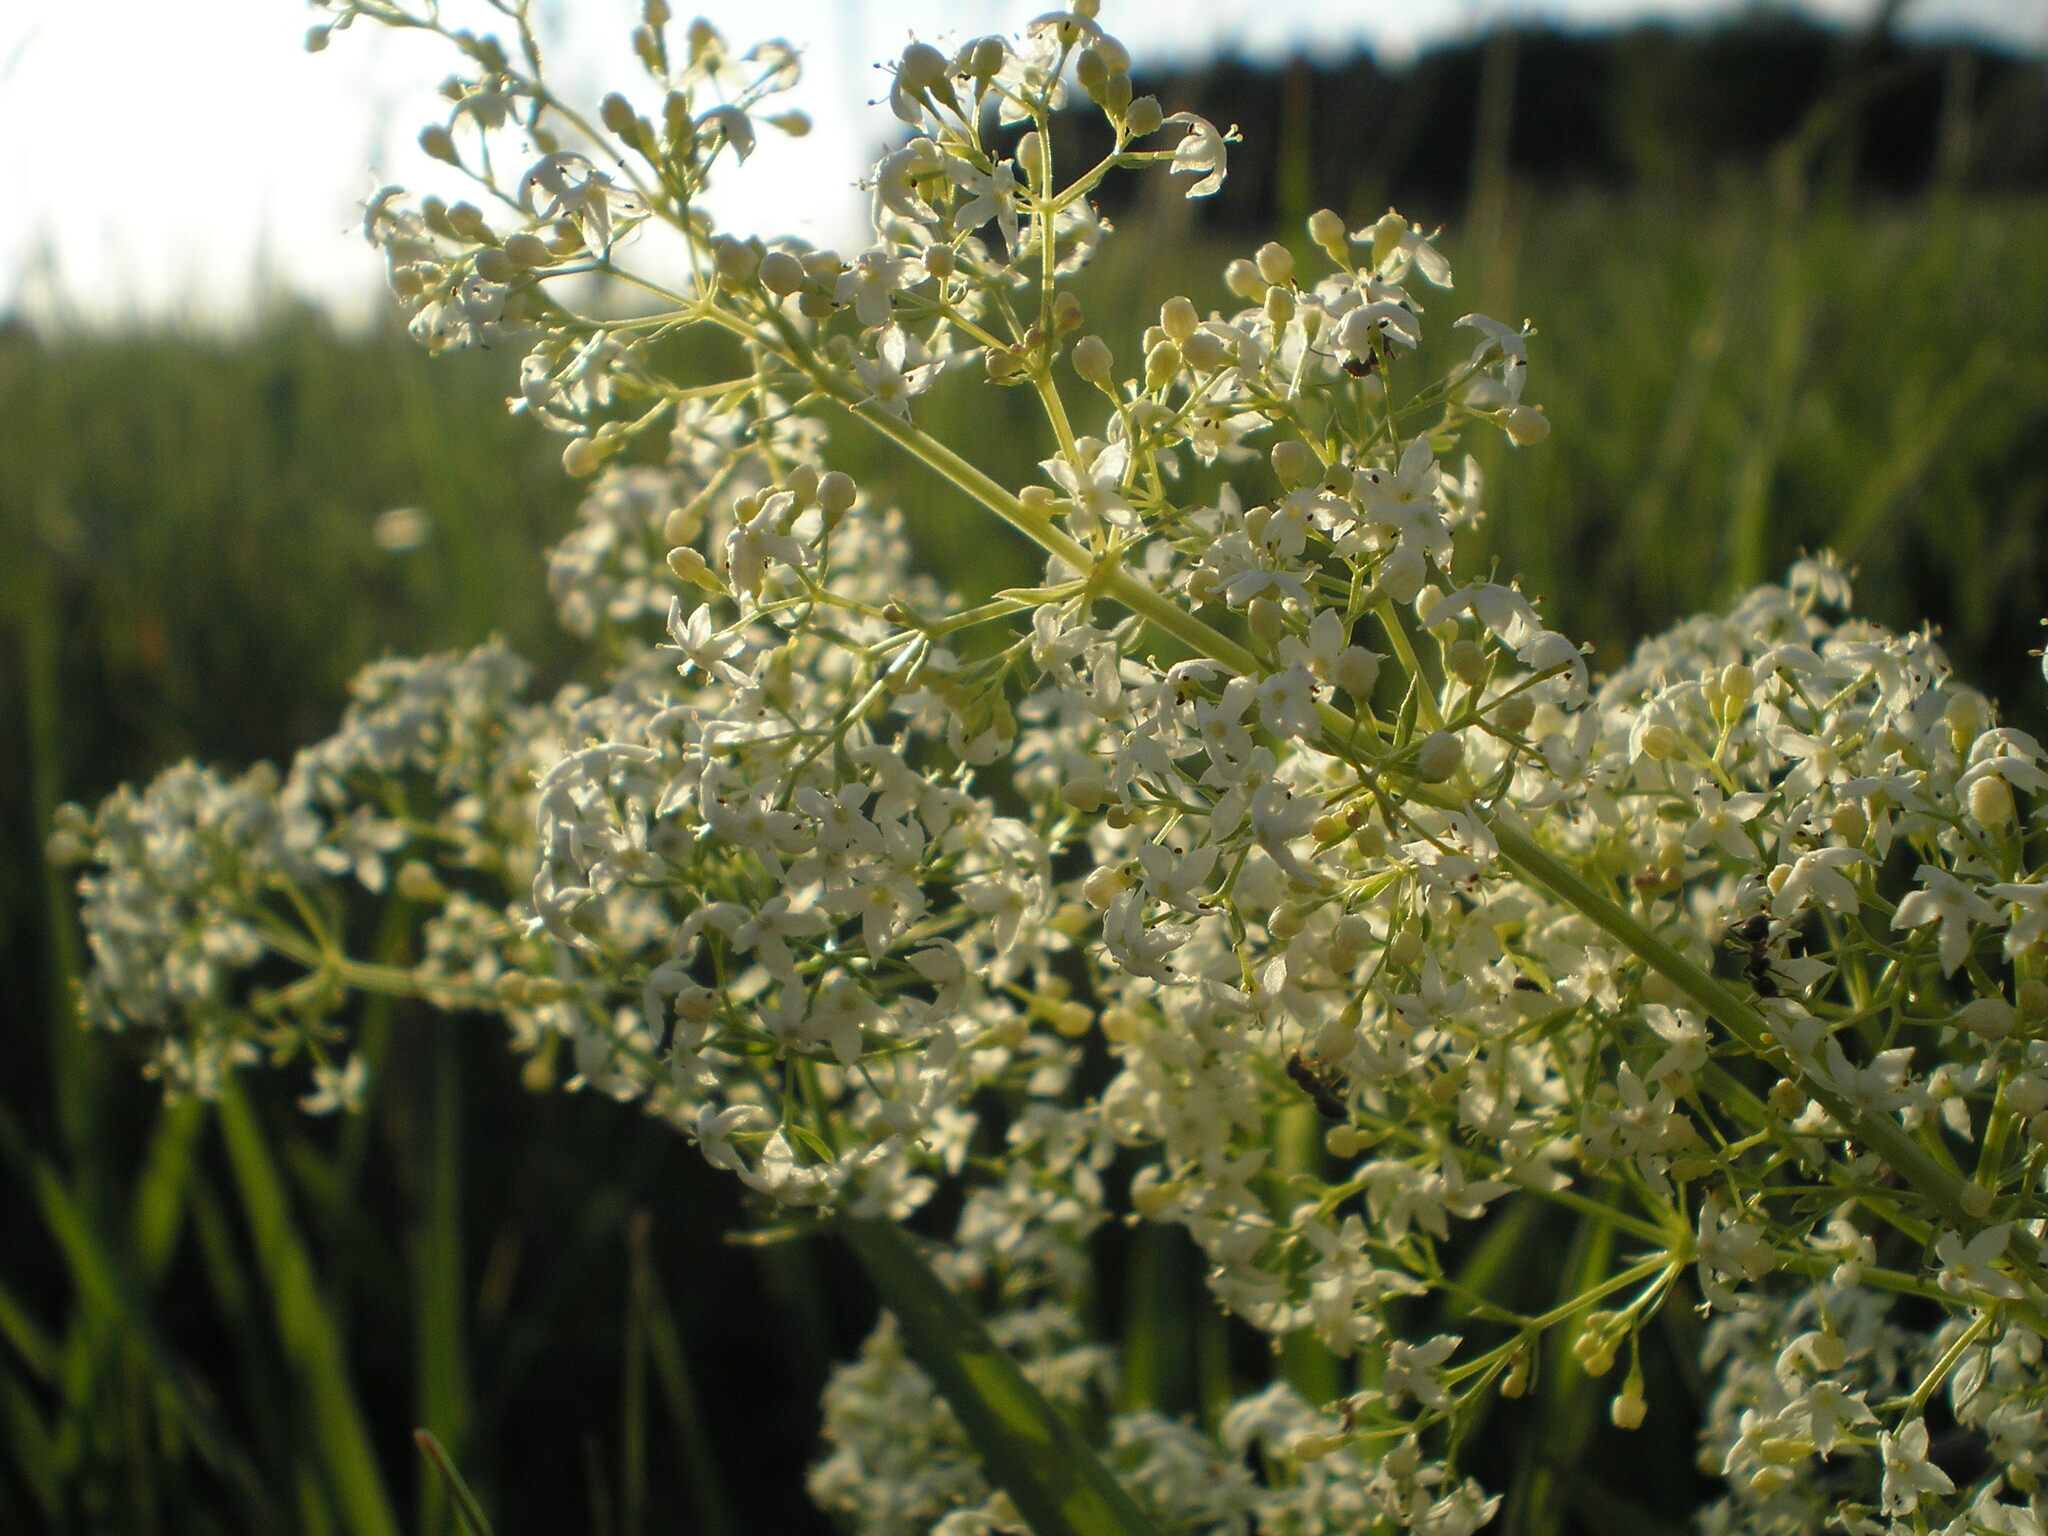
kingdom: Plantae
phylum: Tracheophyta
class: Magnoliopsida
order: Gentianales
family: Rubiaceae
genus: Galium
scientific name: Galium mollugo
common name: Hedge bedstraw
